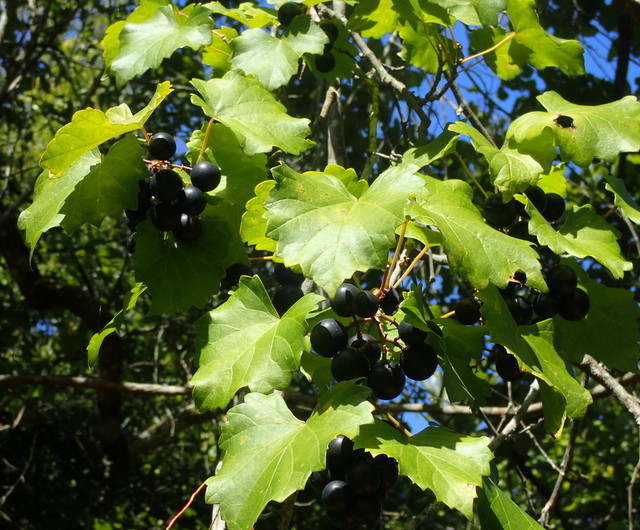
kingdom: Plantae
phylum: Tracheophyta
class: Magnoliopsida
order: Vitales
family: Vitaceae
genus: Vitis
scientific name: Vitis rotundifolia
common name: Muscadine grape
